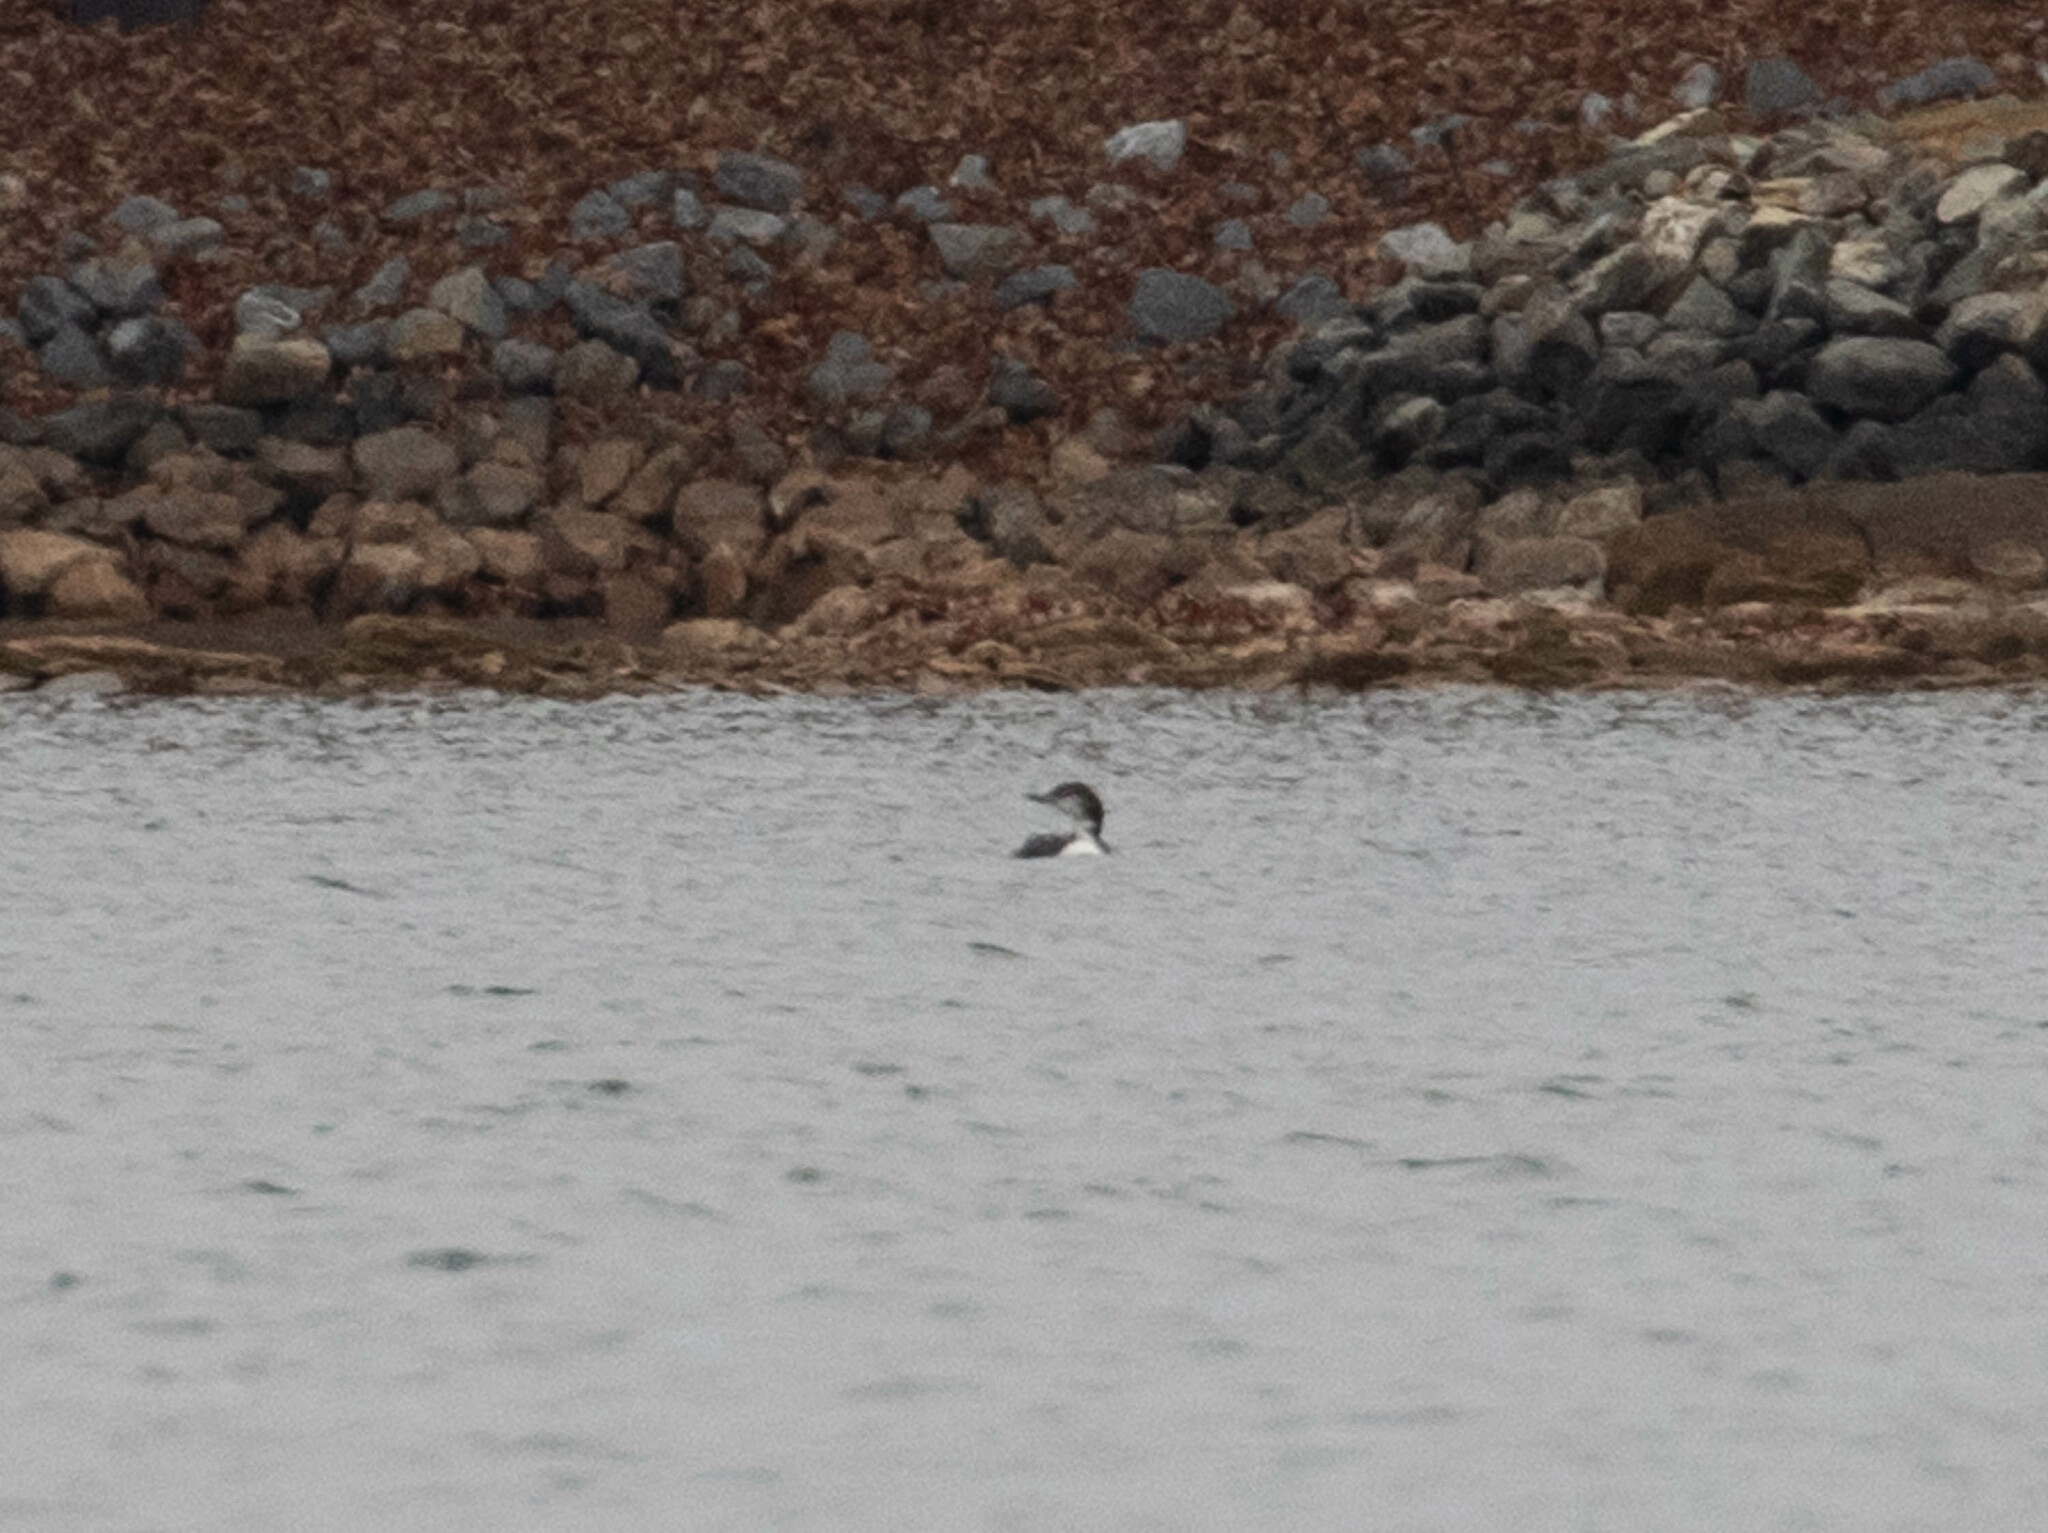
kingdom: Animalia
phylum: Chordata
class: Aves
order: Gaviiformes
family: Gaviidae
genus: Gavia
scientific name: Gavia immer
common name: Common loon
